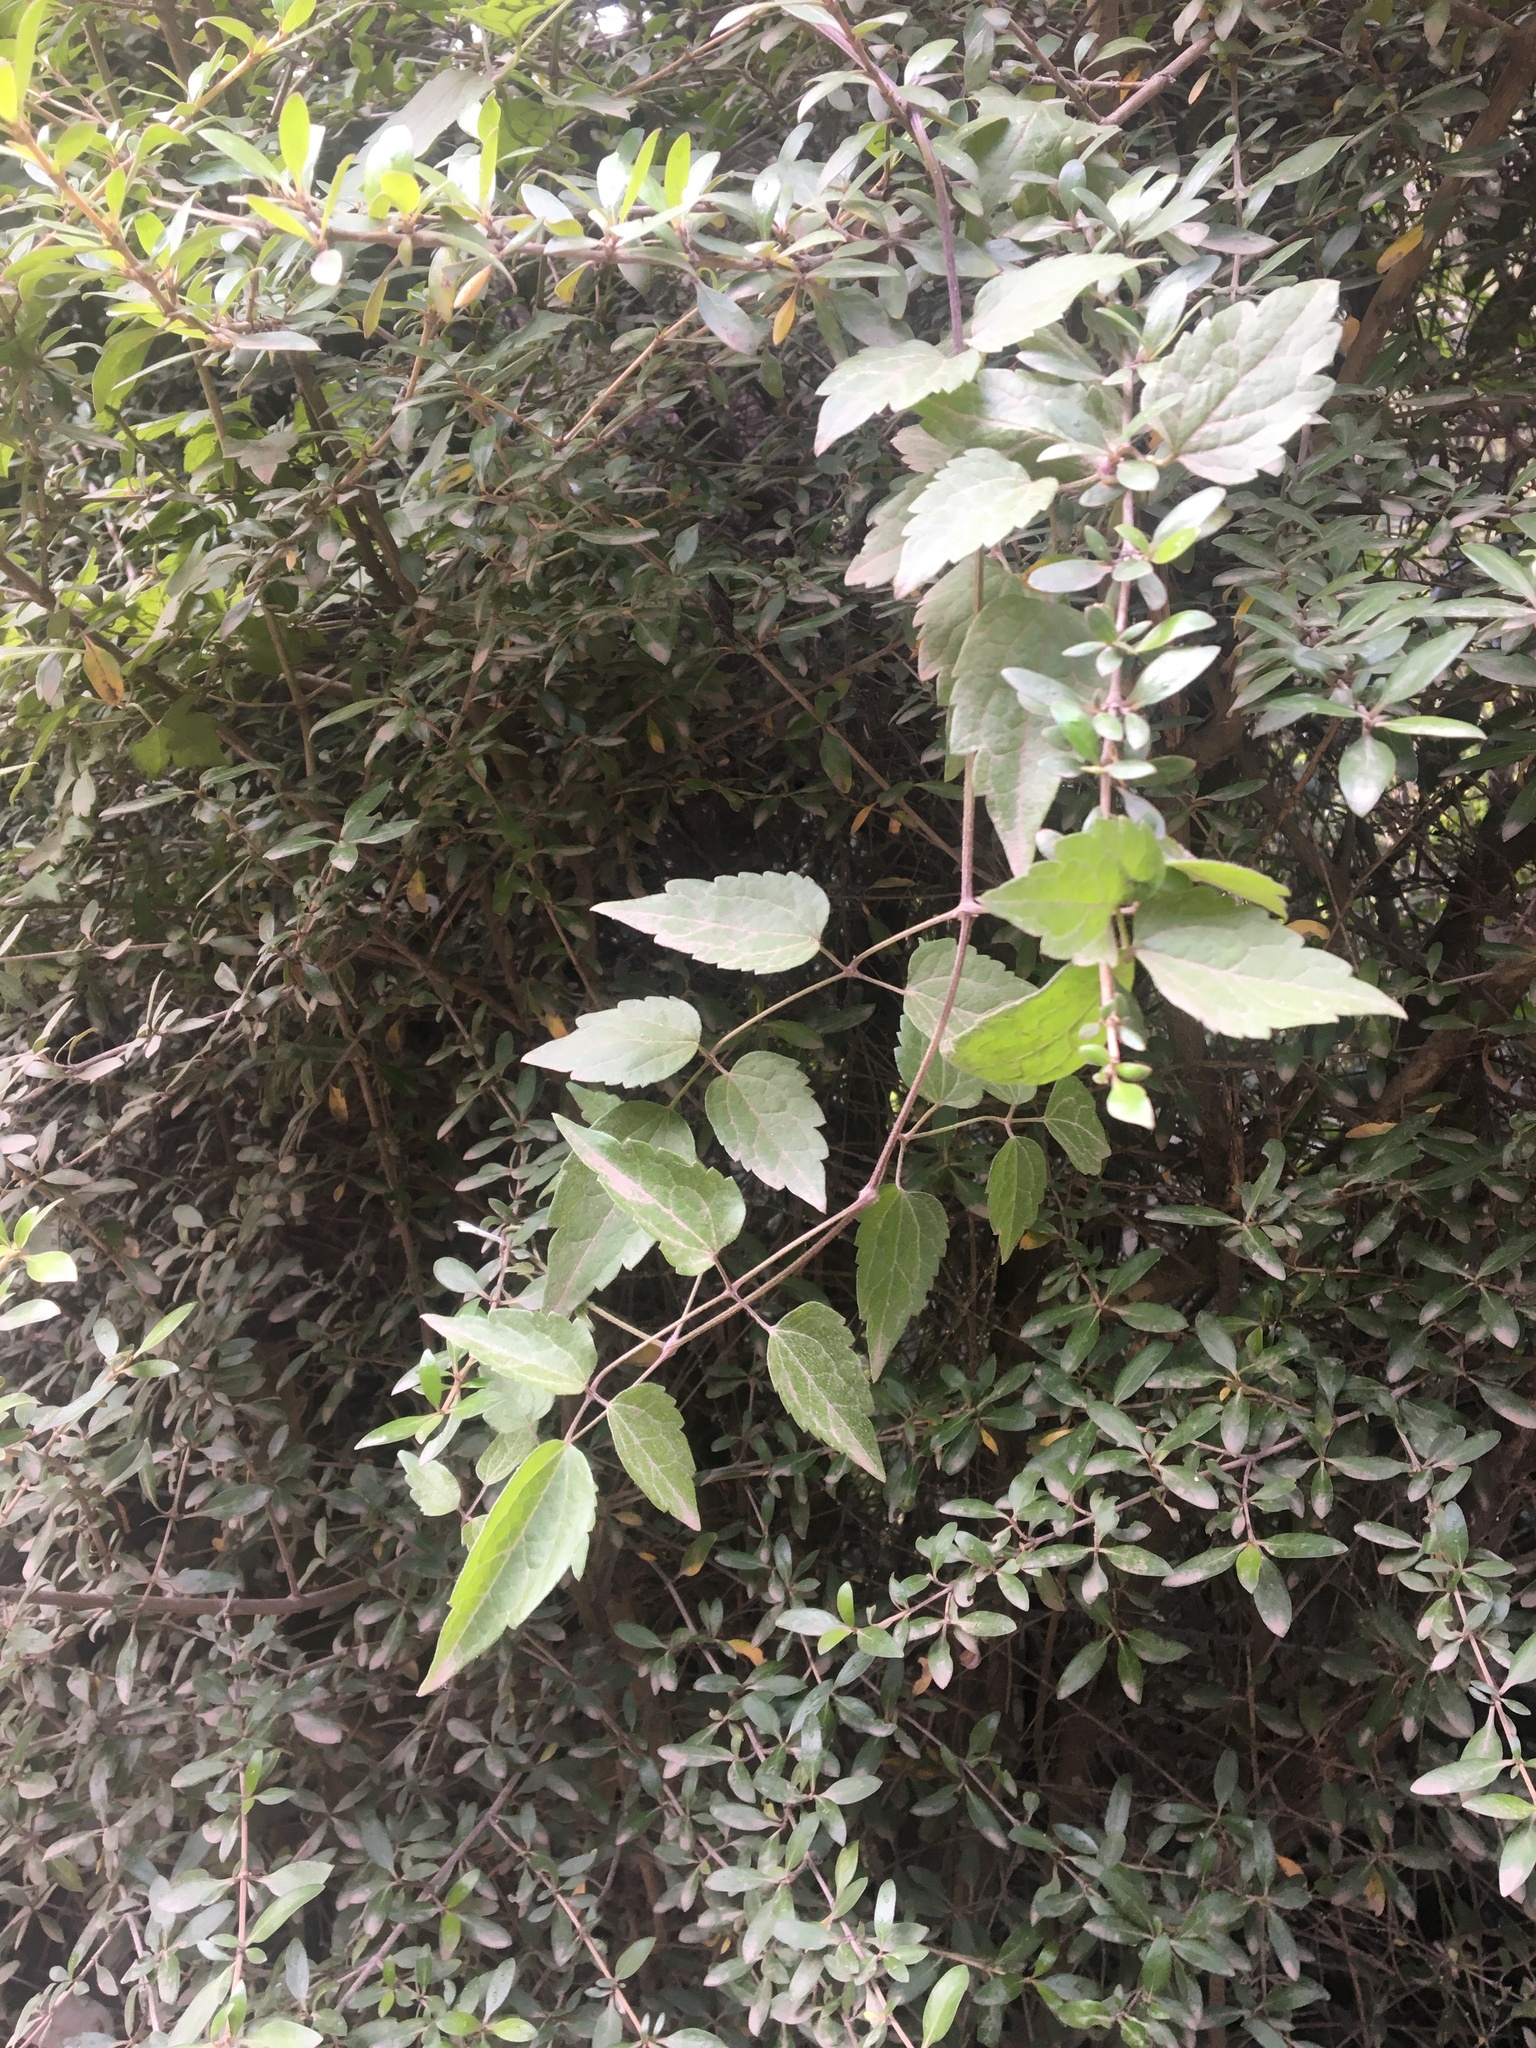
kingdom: Plantae
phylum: Tracheophyta
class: Magnoliopsida
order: Ranunculales
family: Ranunculaceae
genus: Clematis
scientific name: Clematis vitalba
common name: Evergreen clematis
